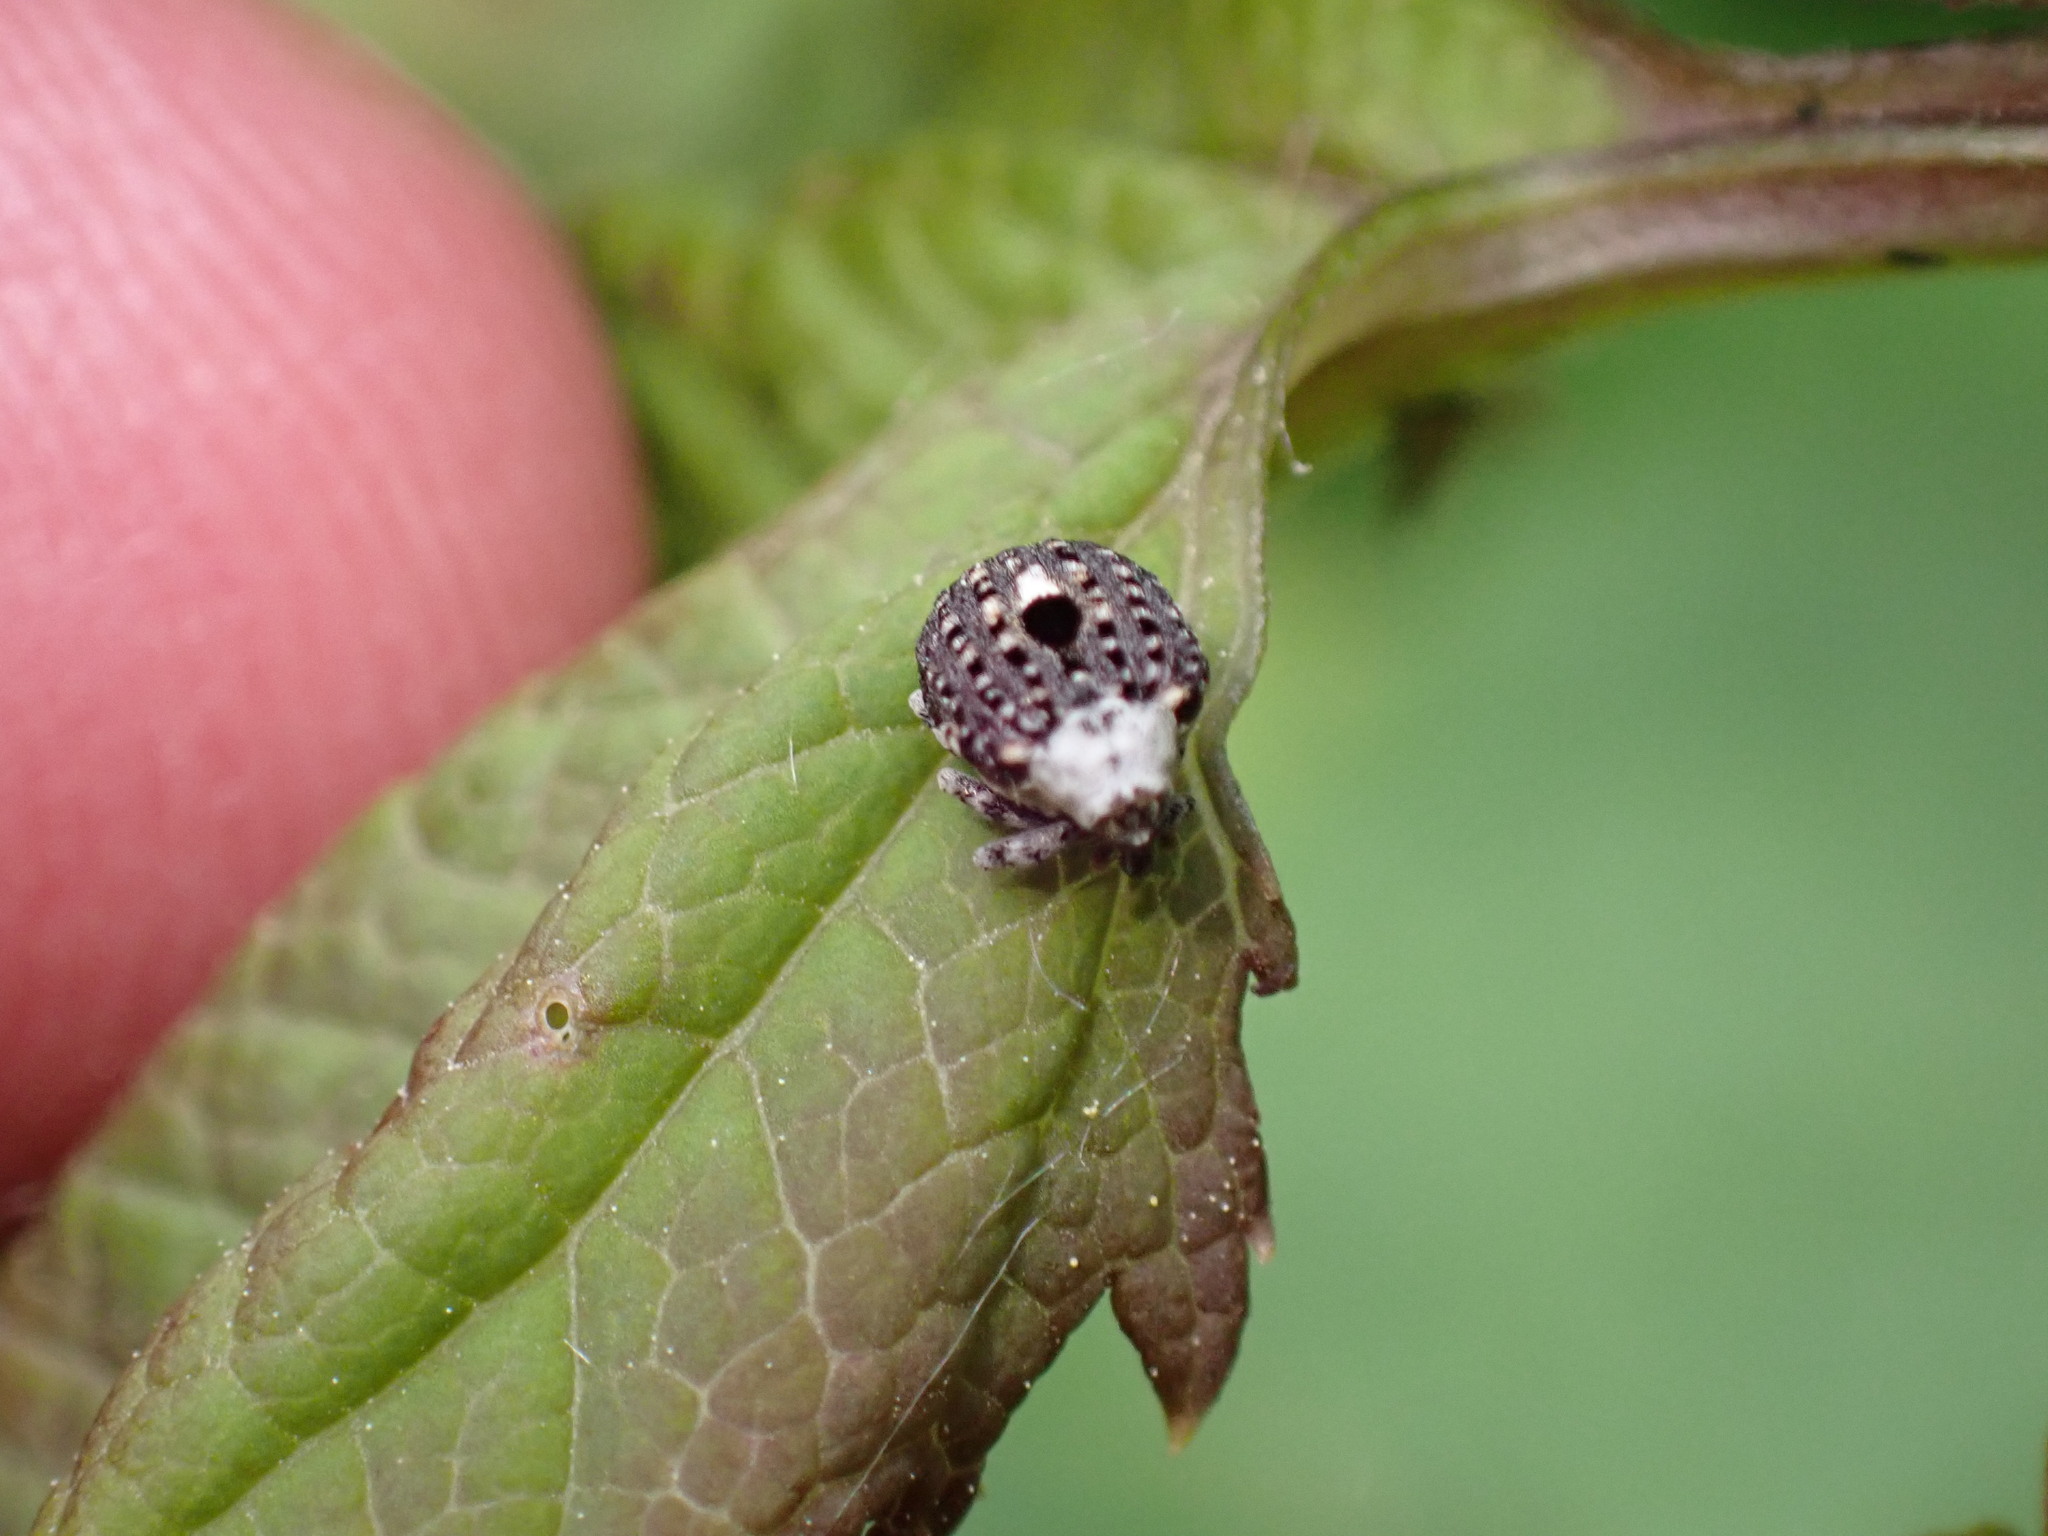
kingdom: Animalia
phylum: Arthropoda
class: Insecta
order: Coleoptera
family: Curculionidae
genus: Cionus
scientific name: Cionus scrophulariae
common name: Common figwort weevil
